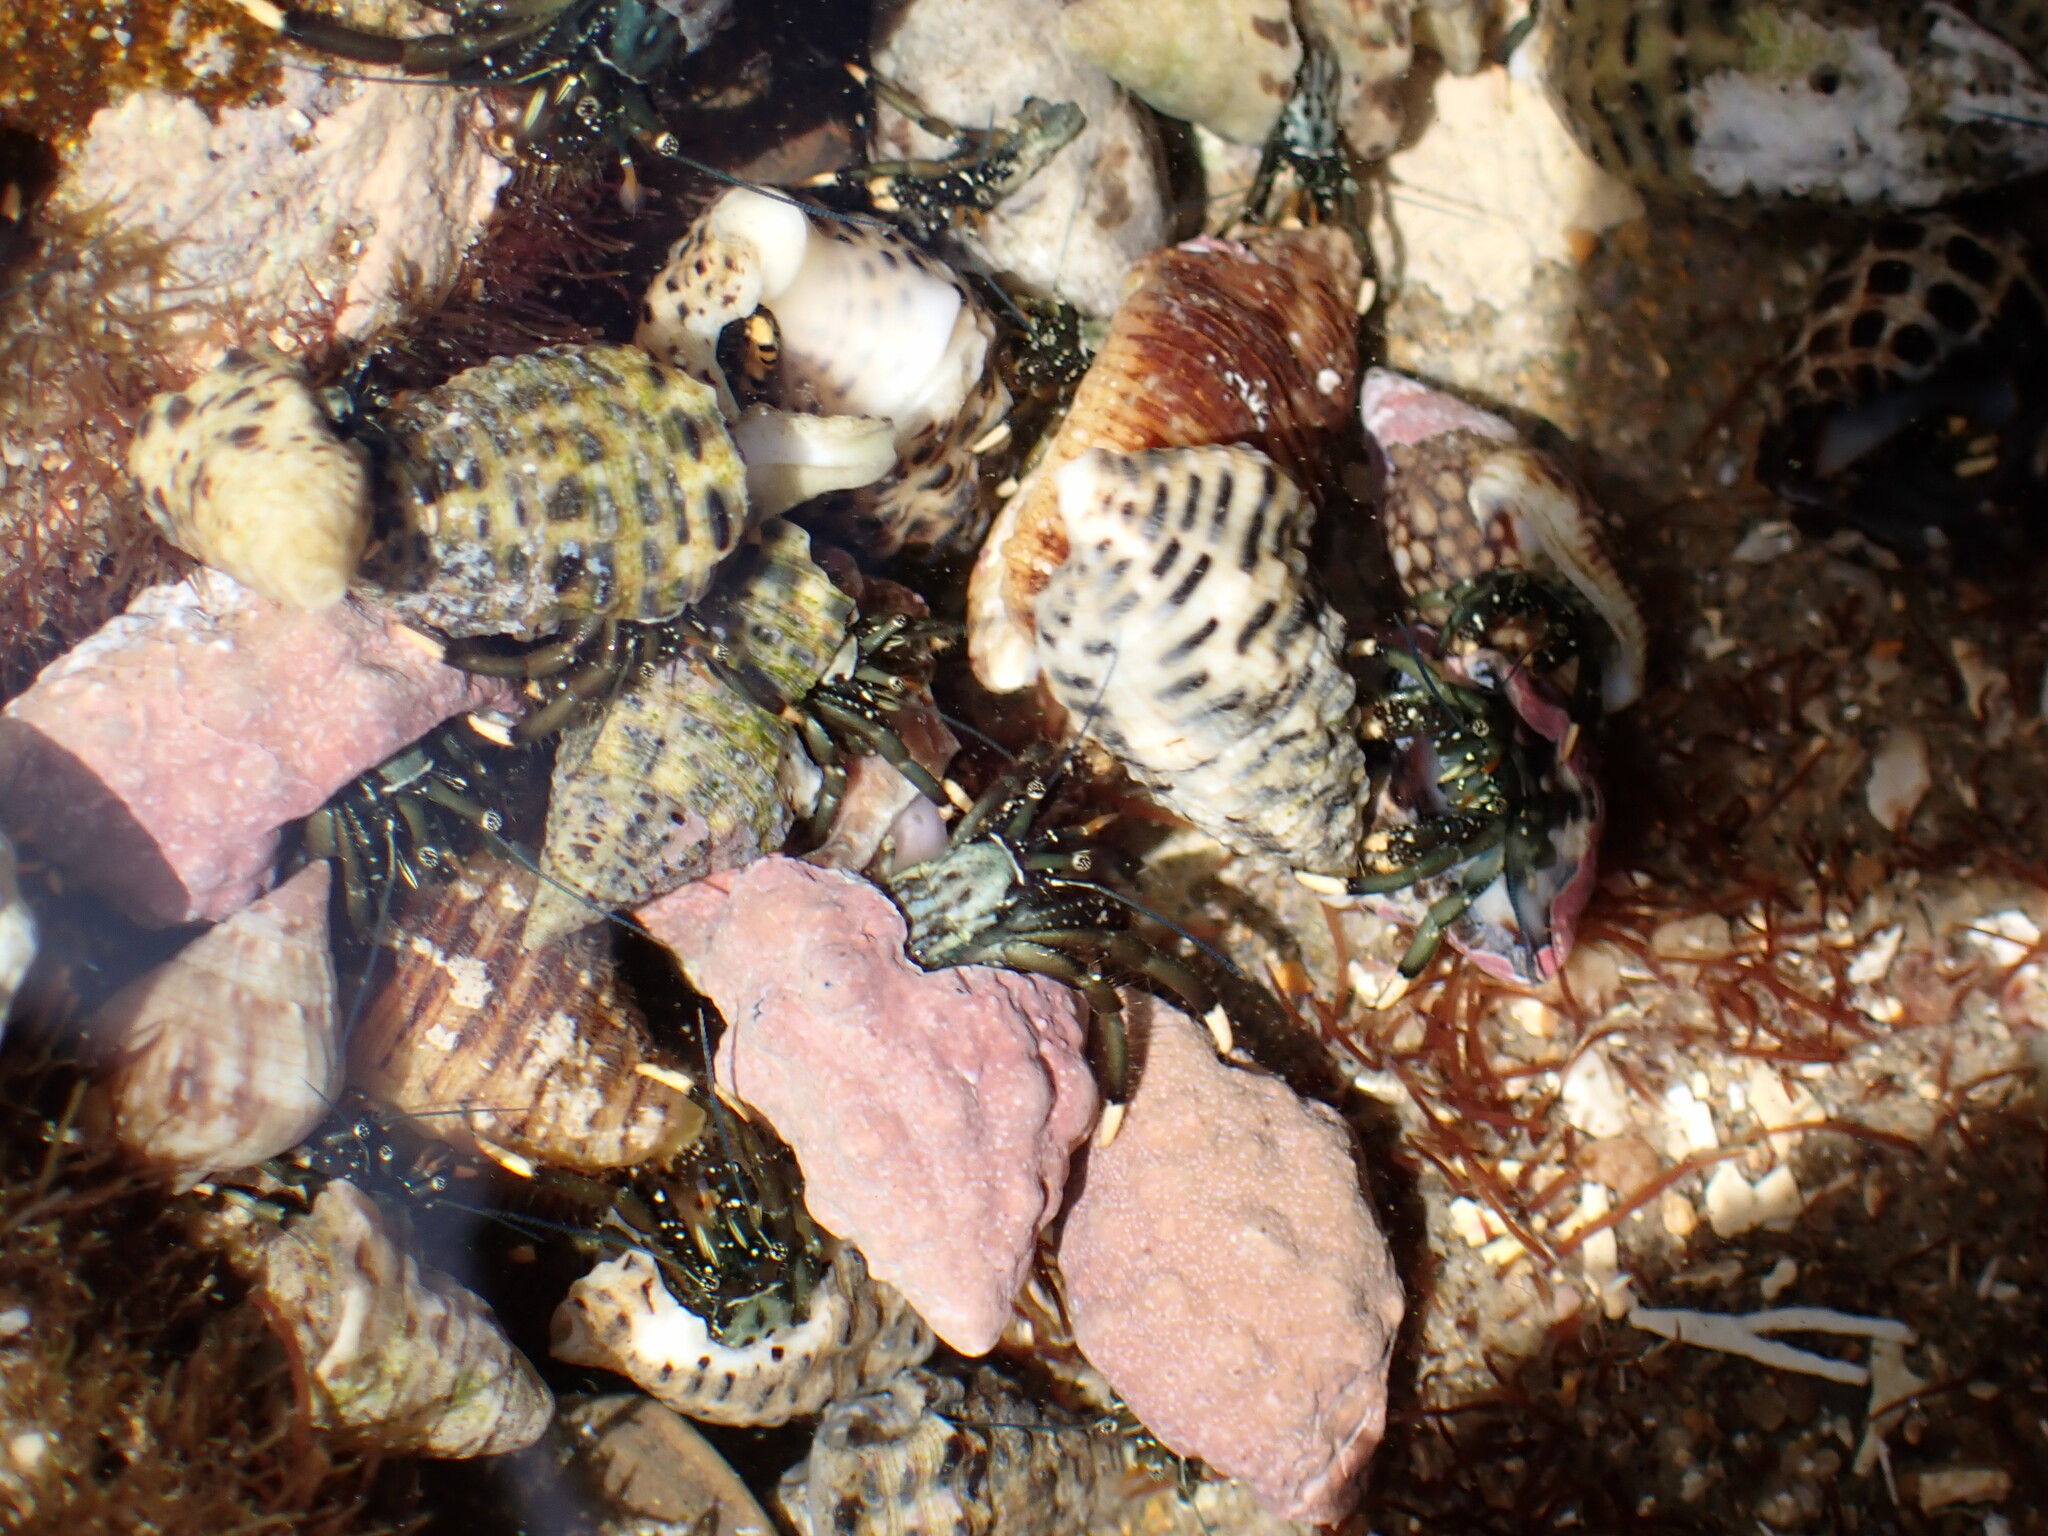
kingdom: Animalia
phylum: Arthropoda
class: Malacostraca
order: Decapoda
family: Diogenidae
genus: Clibanarius
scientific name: Clibanarius virescens
